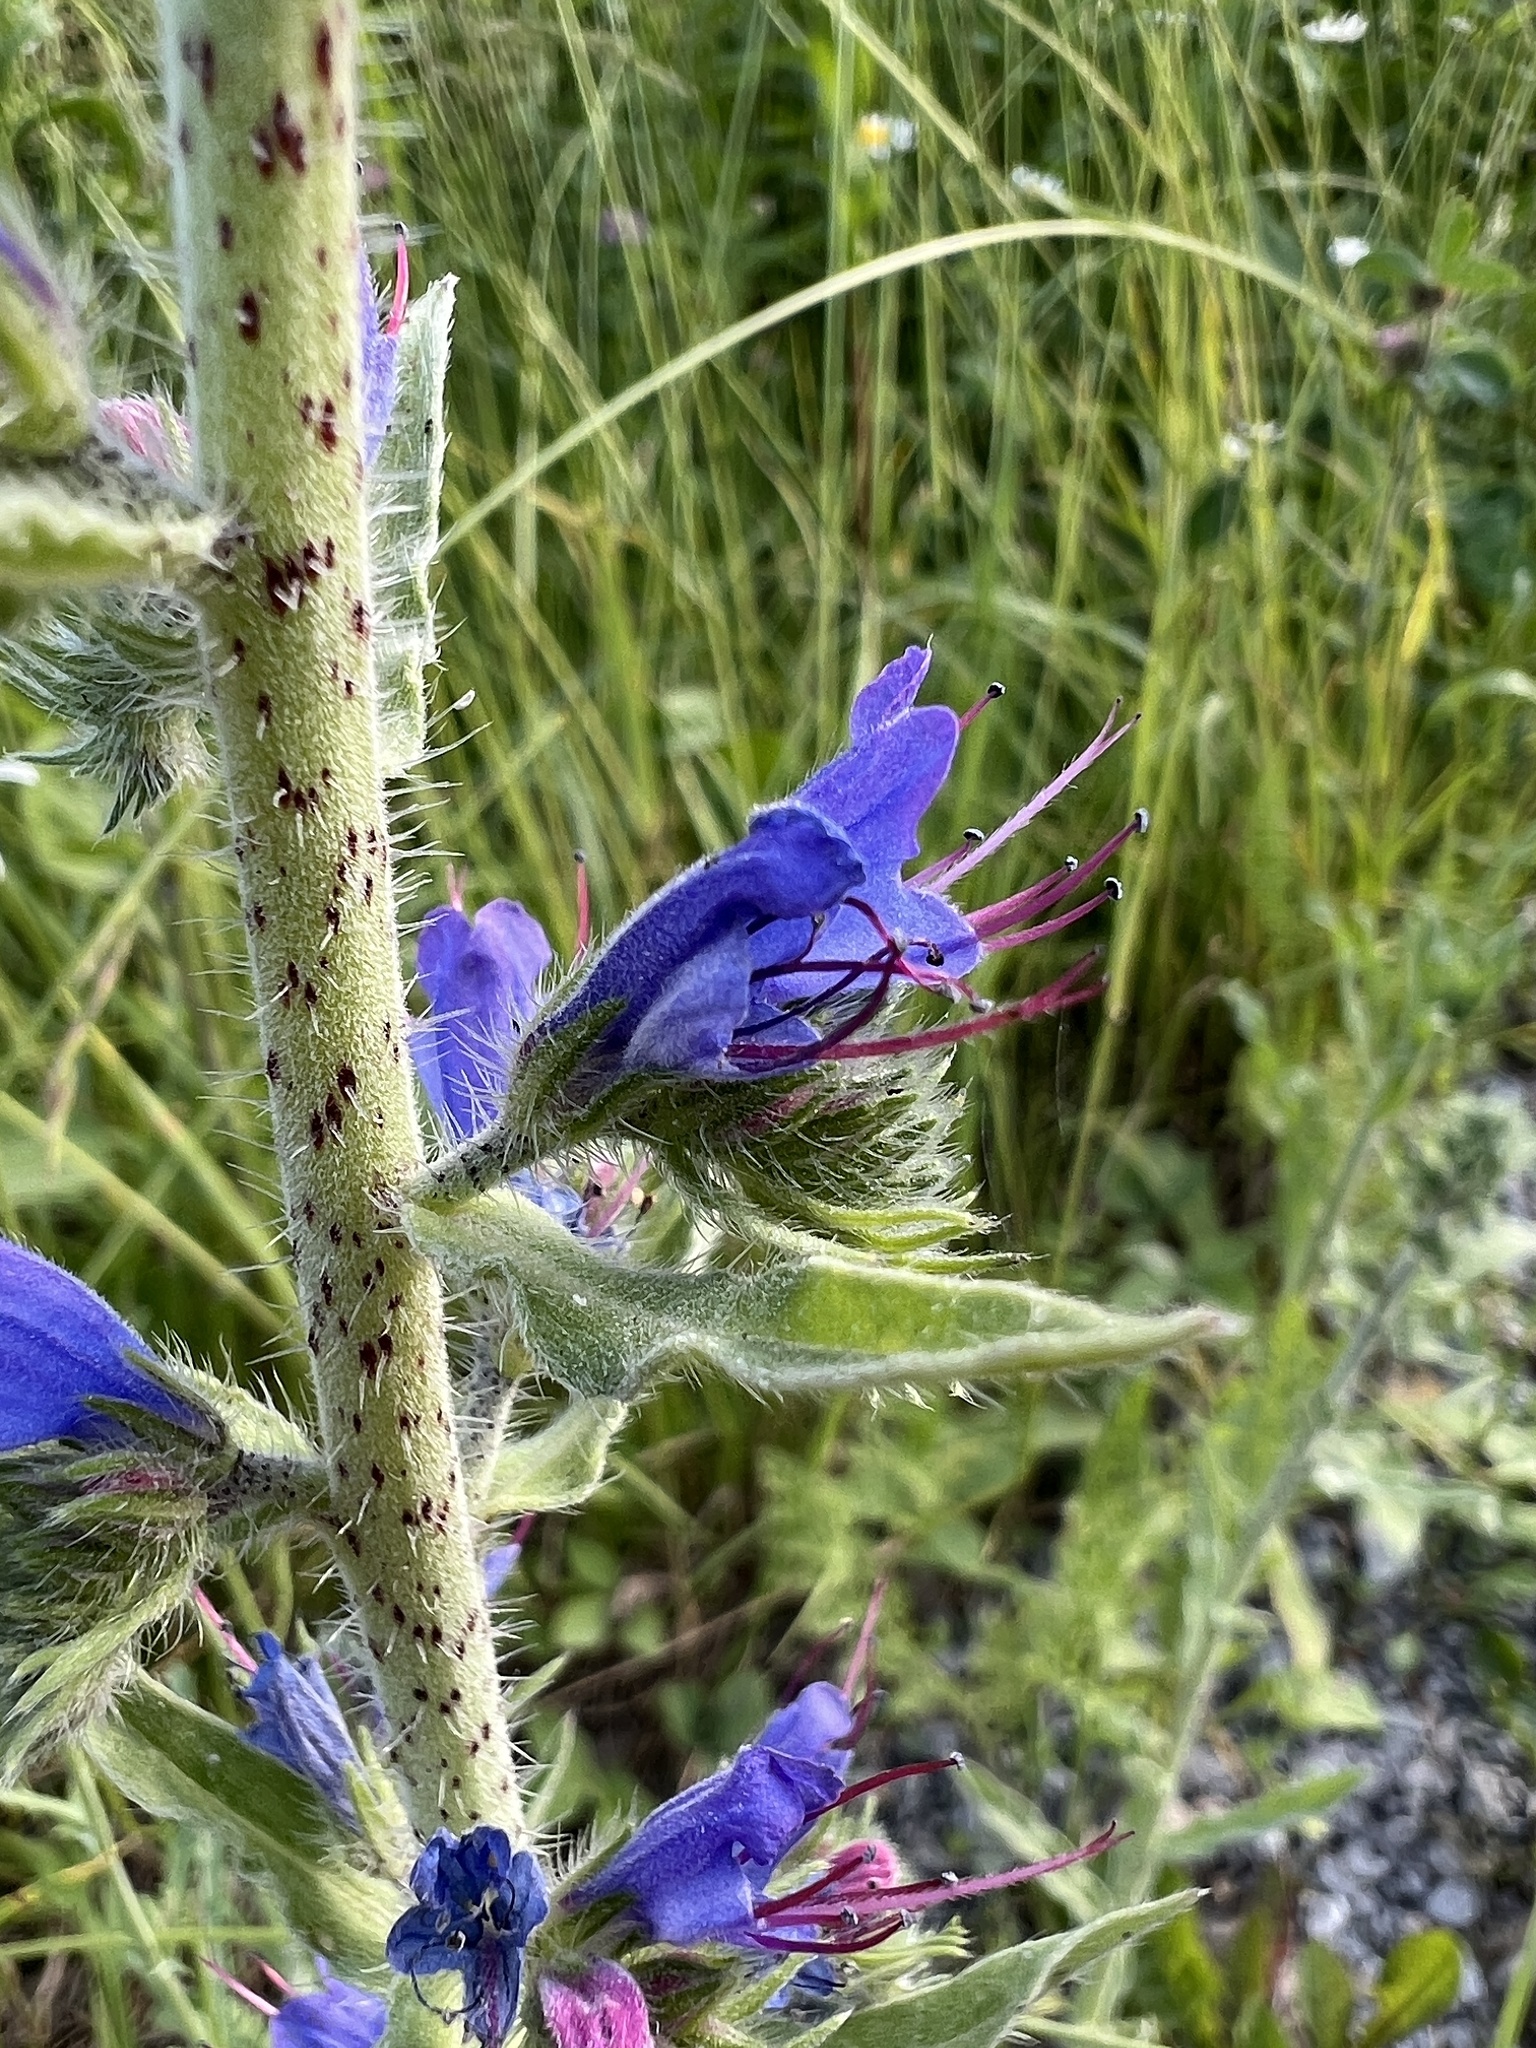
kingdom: Plantae
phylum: Tracheophyta
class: Magnoliopsida
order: Boraginales
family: Boraginaceae
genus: Echium
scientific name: Echium vulgare
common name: Common viper's bugloss
